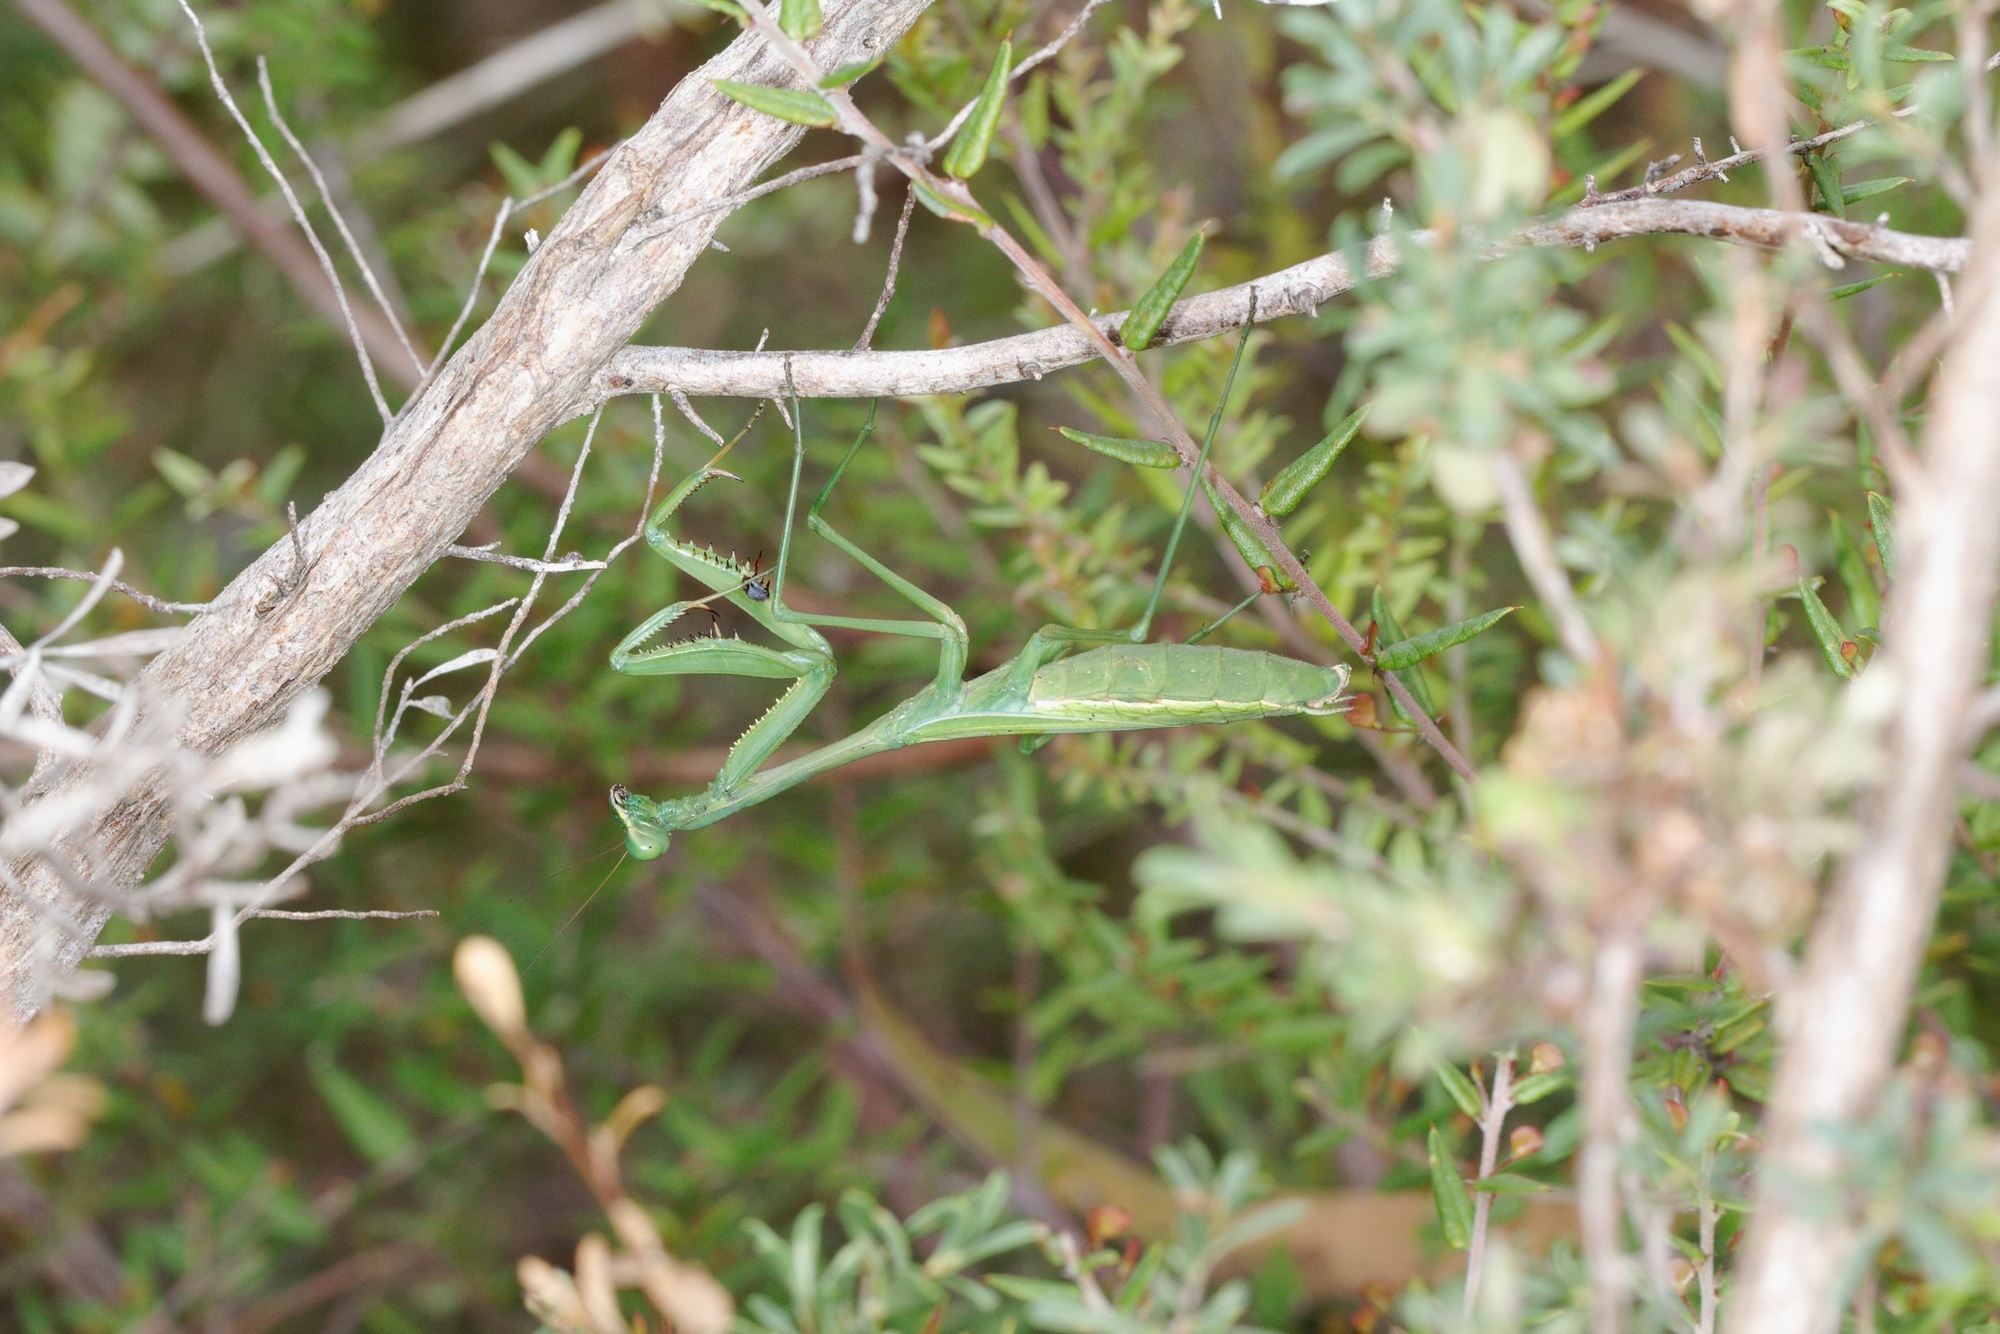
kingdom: Animalia
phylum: Arthropoda
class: Insecta
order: Mantodea
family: Mantidae
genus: Pseudomantis
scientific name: Pseudomantis albofimbriata
